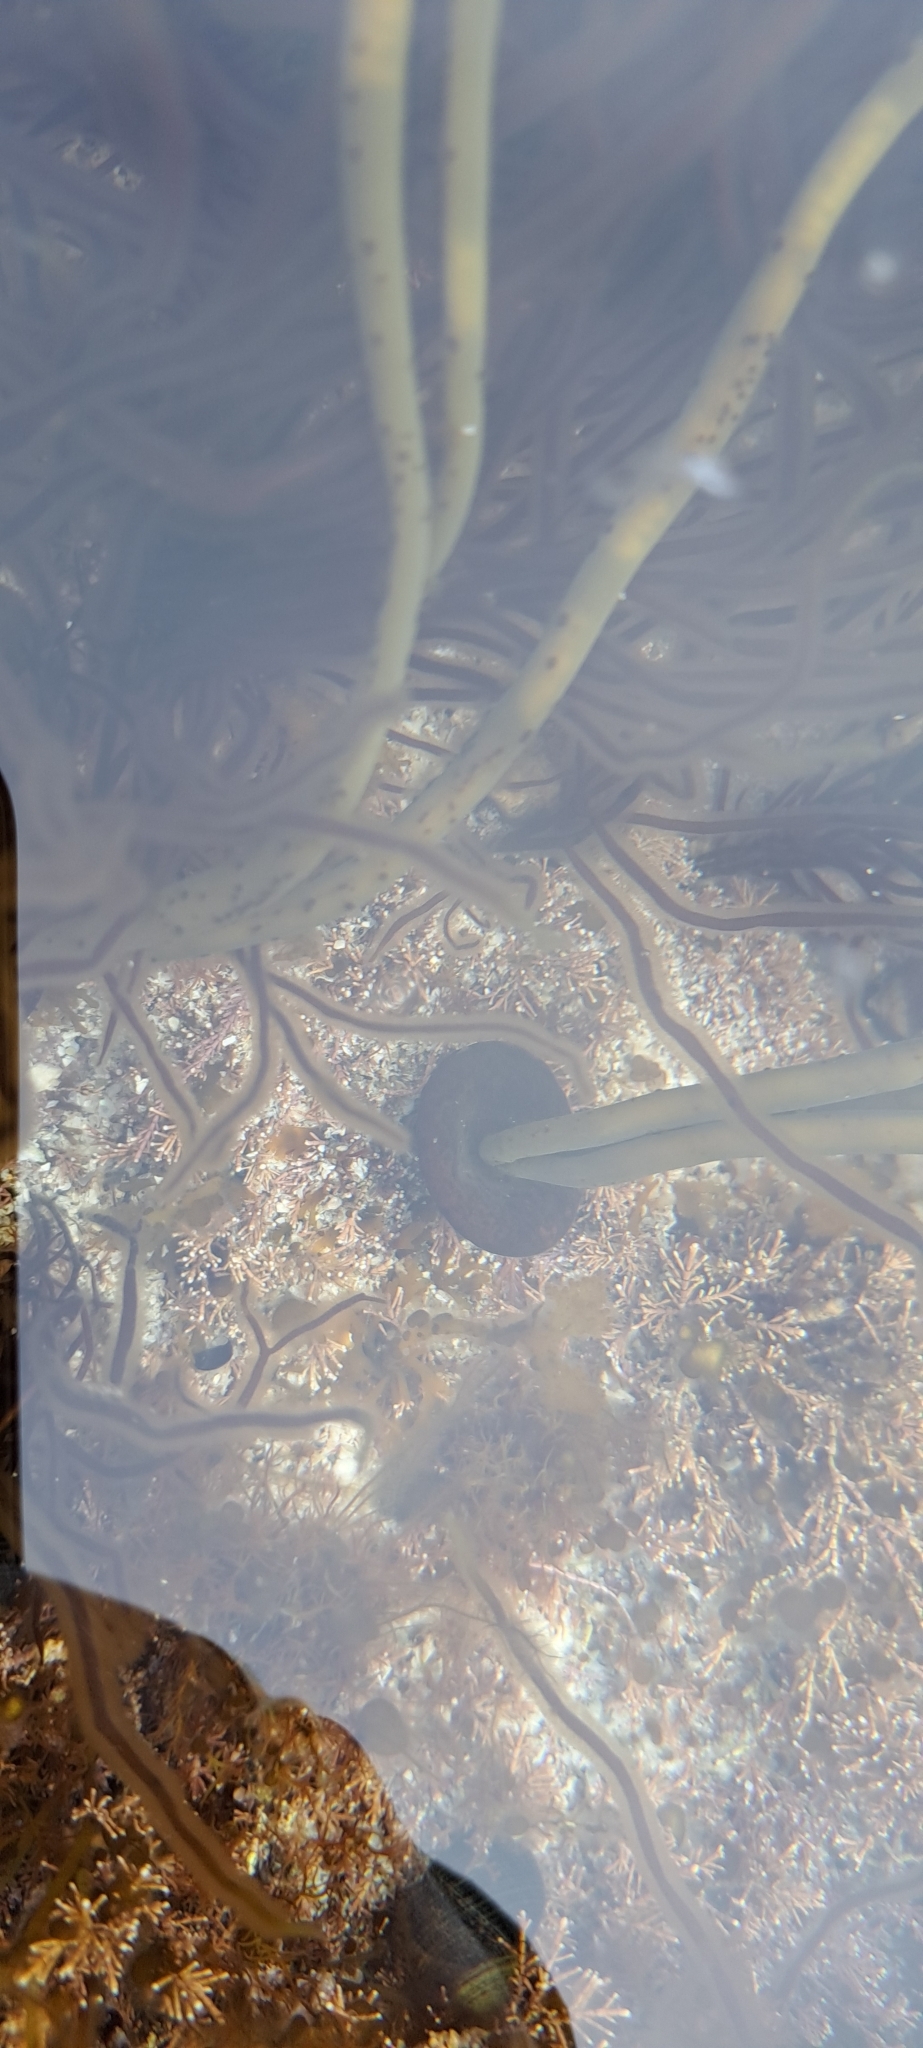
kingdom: Chromista
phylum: Ochrophyta
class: Phaeophyceae
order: Fucales
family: Himanthaliaceae
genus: Himanthalia
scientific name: Himanthalia elongata
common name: Sea-thong
